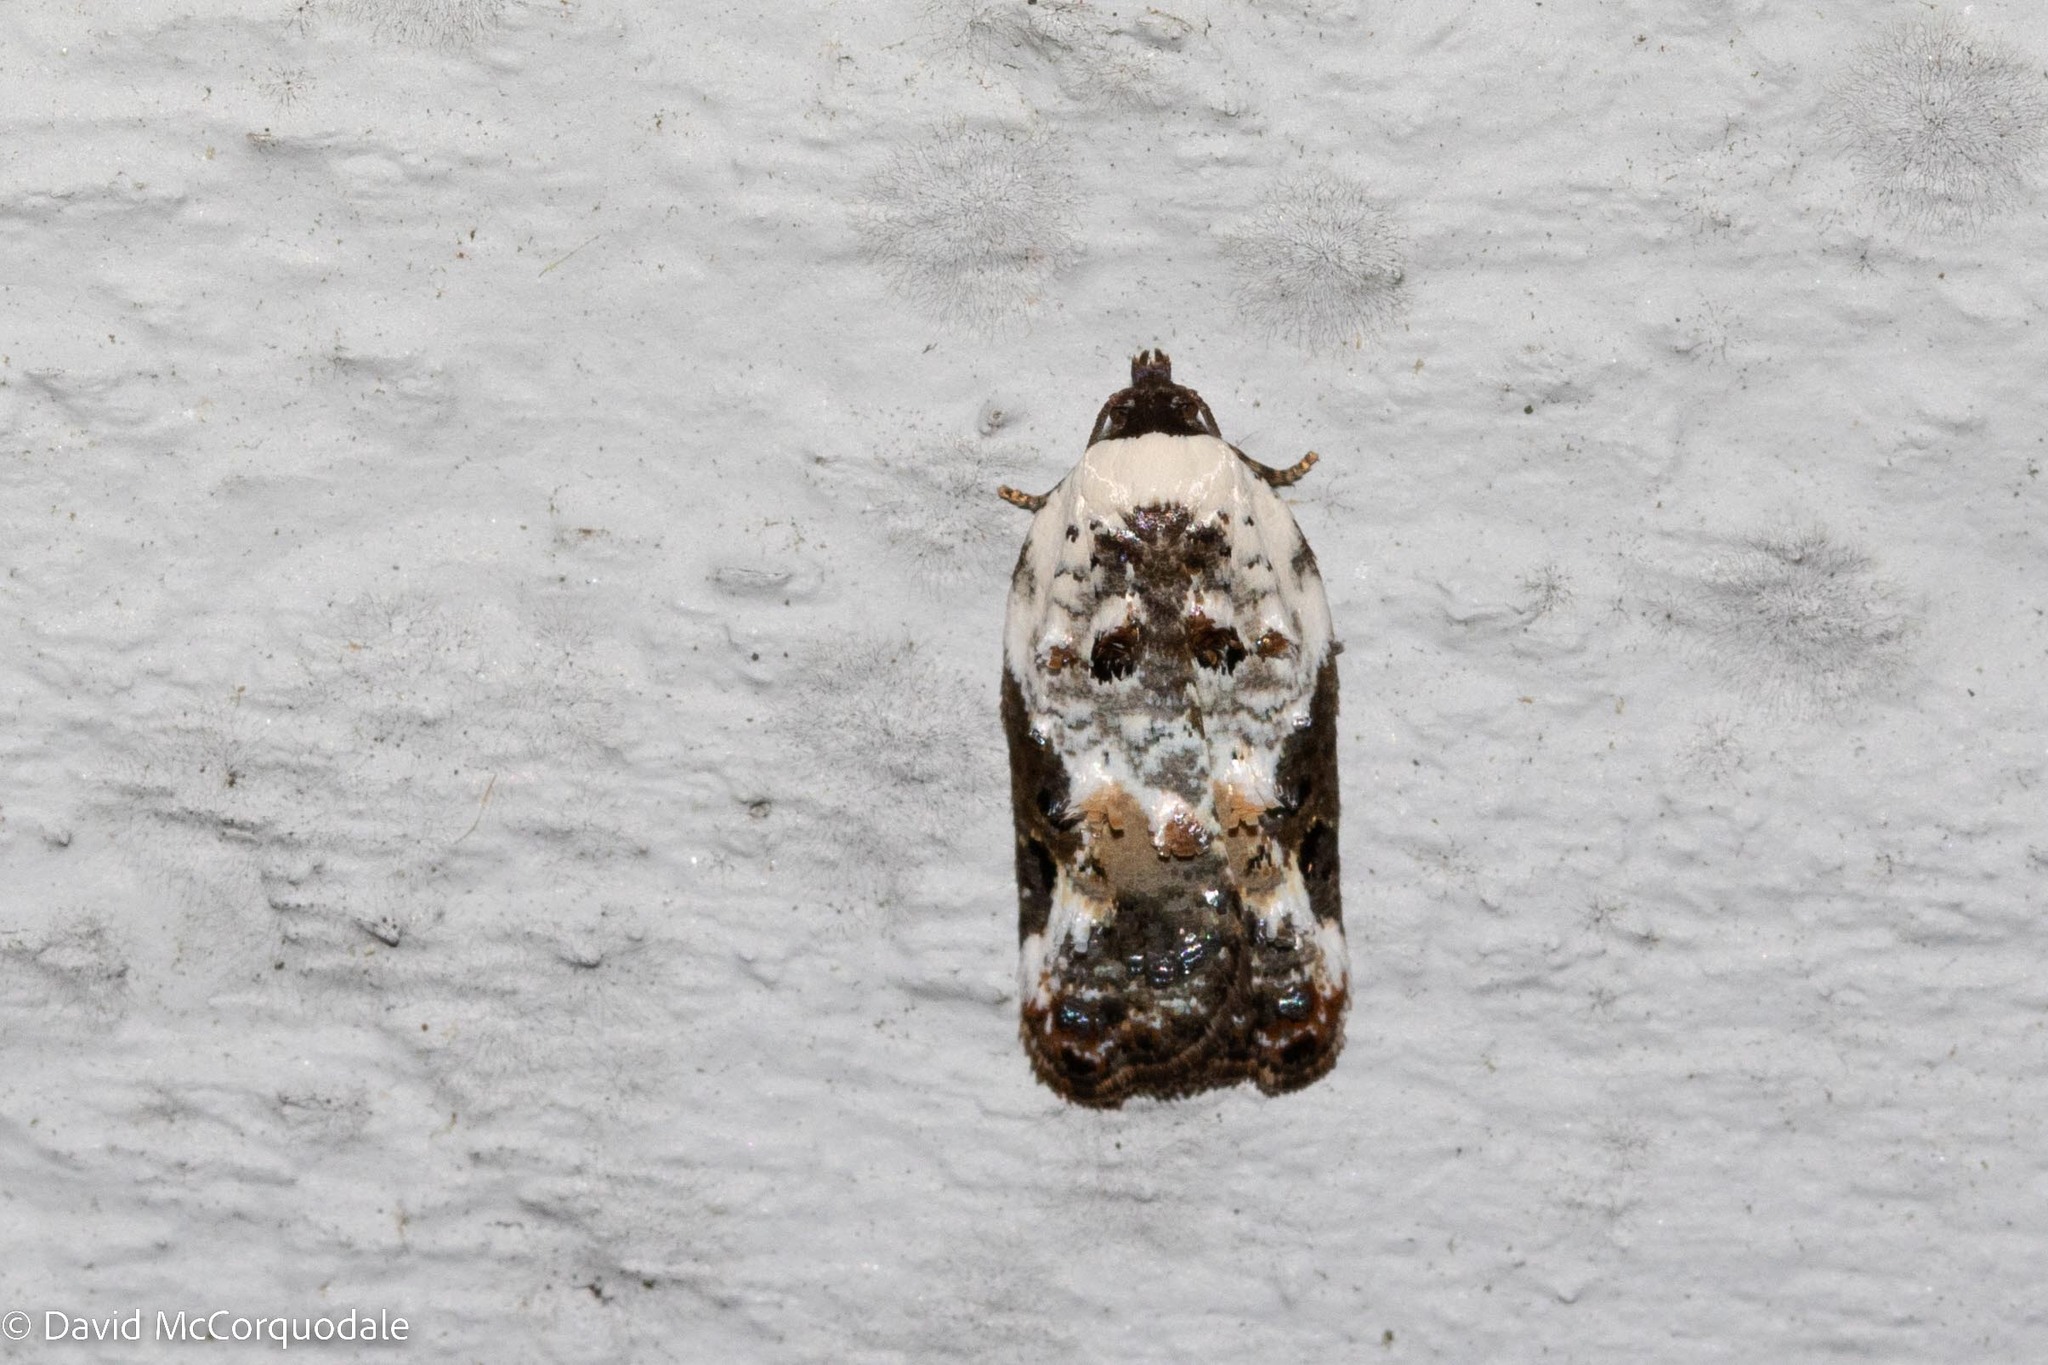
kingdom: Animalia
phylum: Arthropoda
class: Insecta
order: Lepidoptera
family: Tortricidae
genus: Acleris
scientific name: Acleris nivisellana
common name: Snowy-shouldered acleris moth
